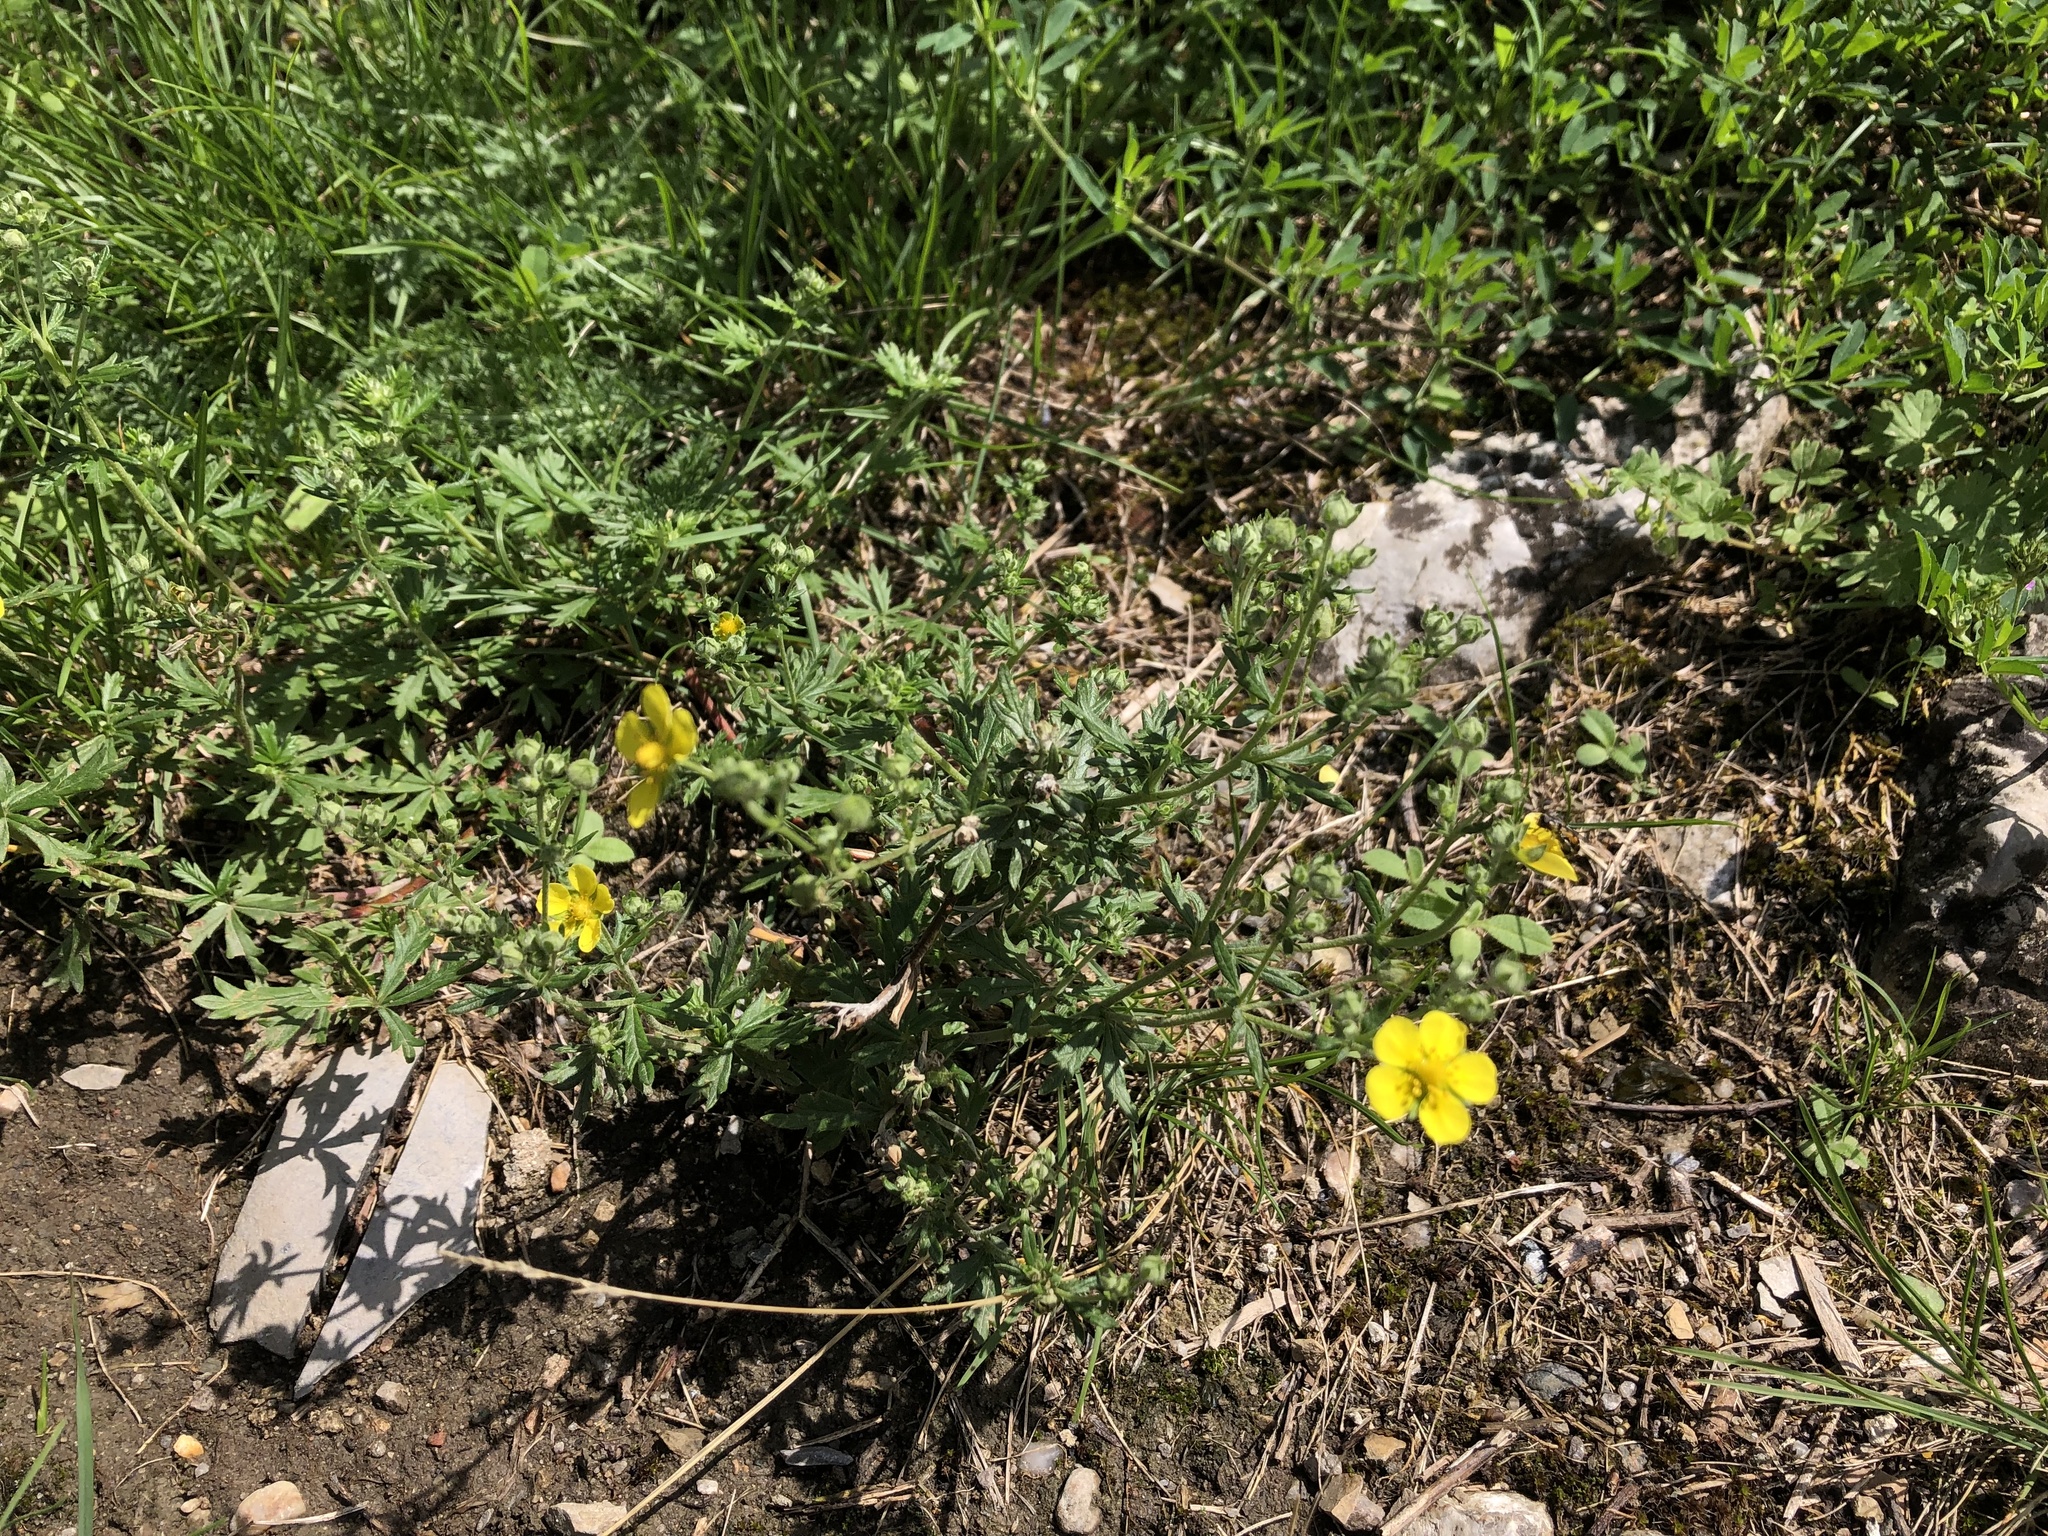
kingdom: Plantae
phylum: Tracheophyta
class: Magnoliopsida
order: Rosales
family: Rosaceae
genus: Potentilla
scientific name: Potentilla argentea
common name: Hoary cinquefoil
